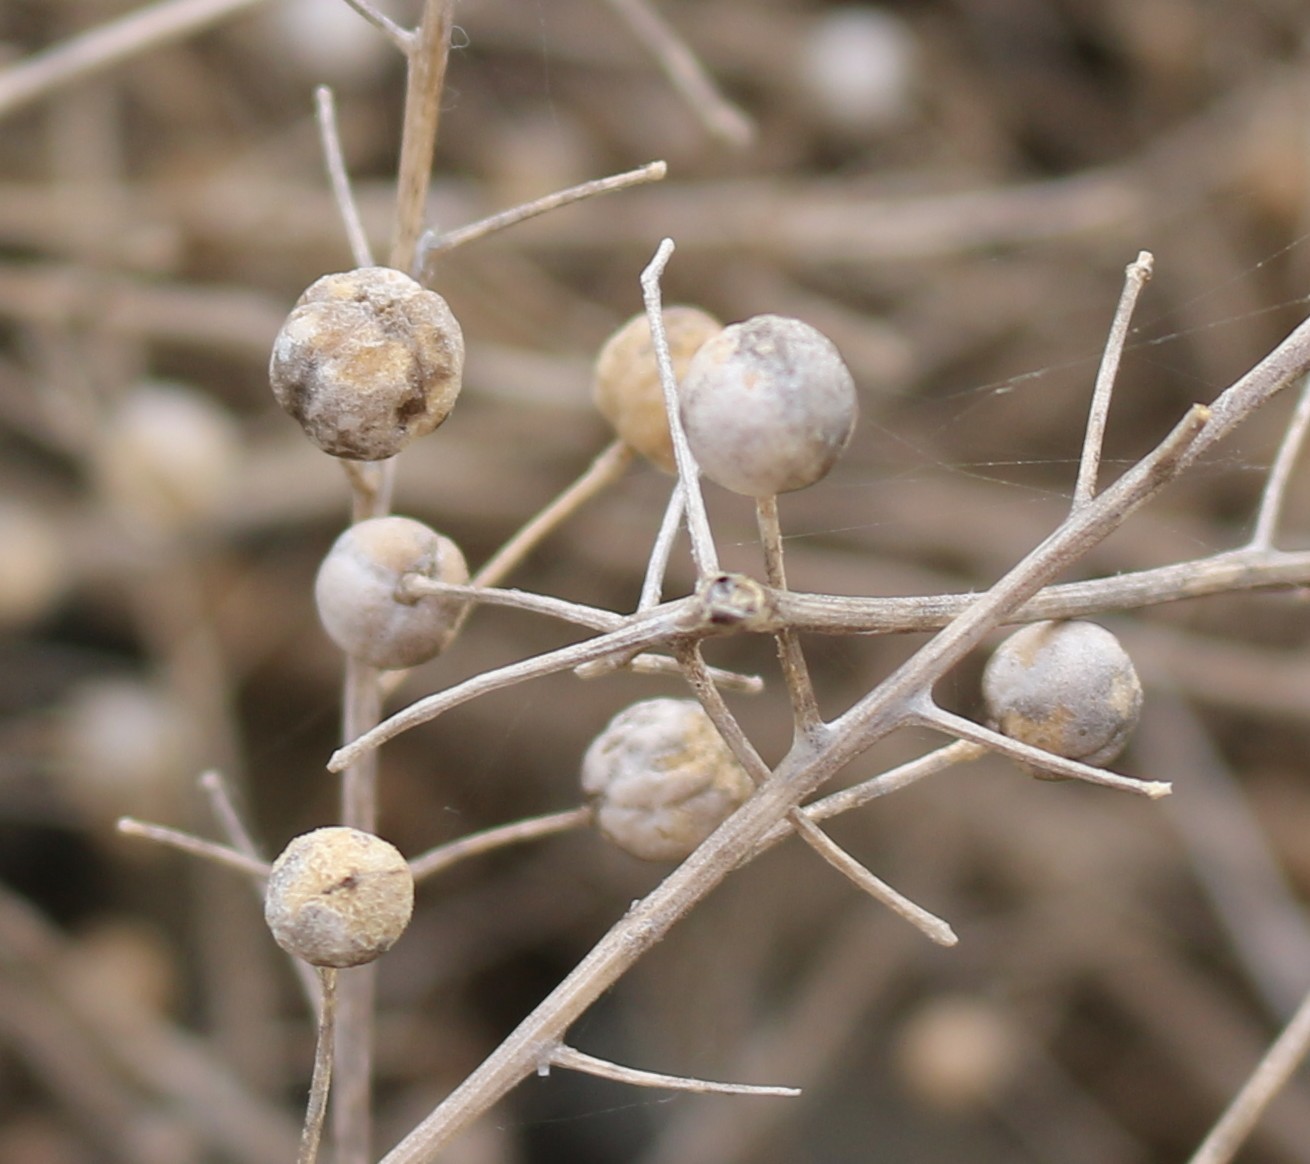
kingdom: Plantae
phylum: Tracheophyta
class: Magnoliopsida
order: Brassicales
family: Brassicaceae
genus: Crambe
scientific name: Crambe maritima
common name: Sea-kale
